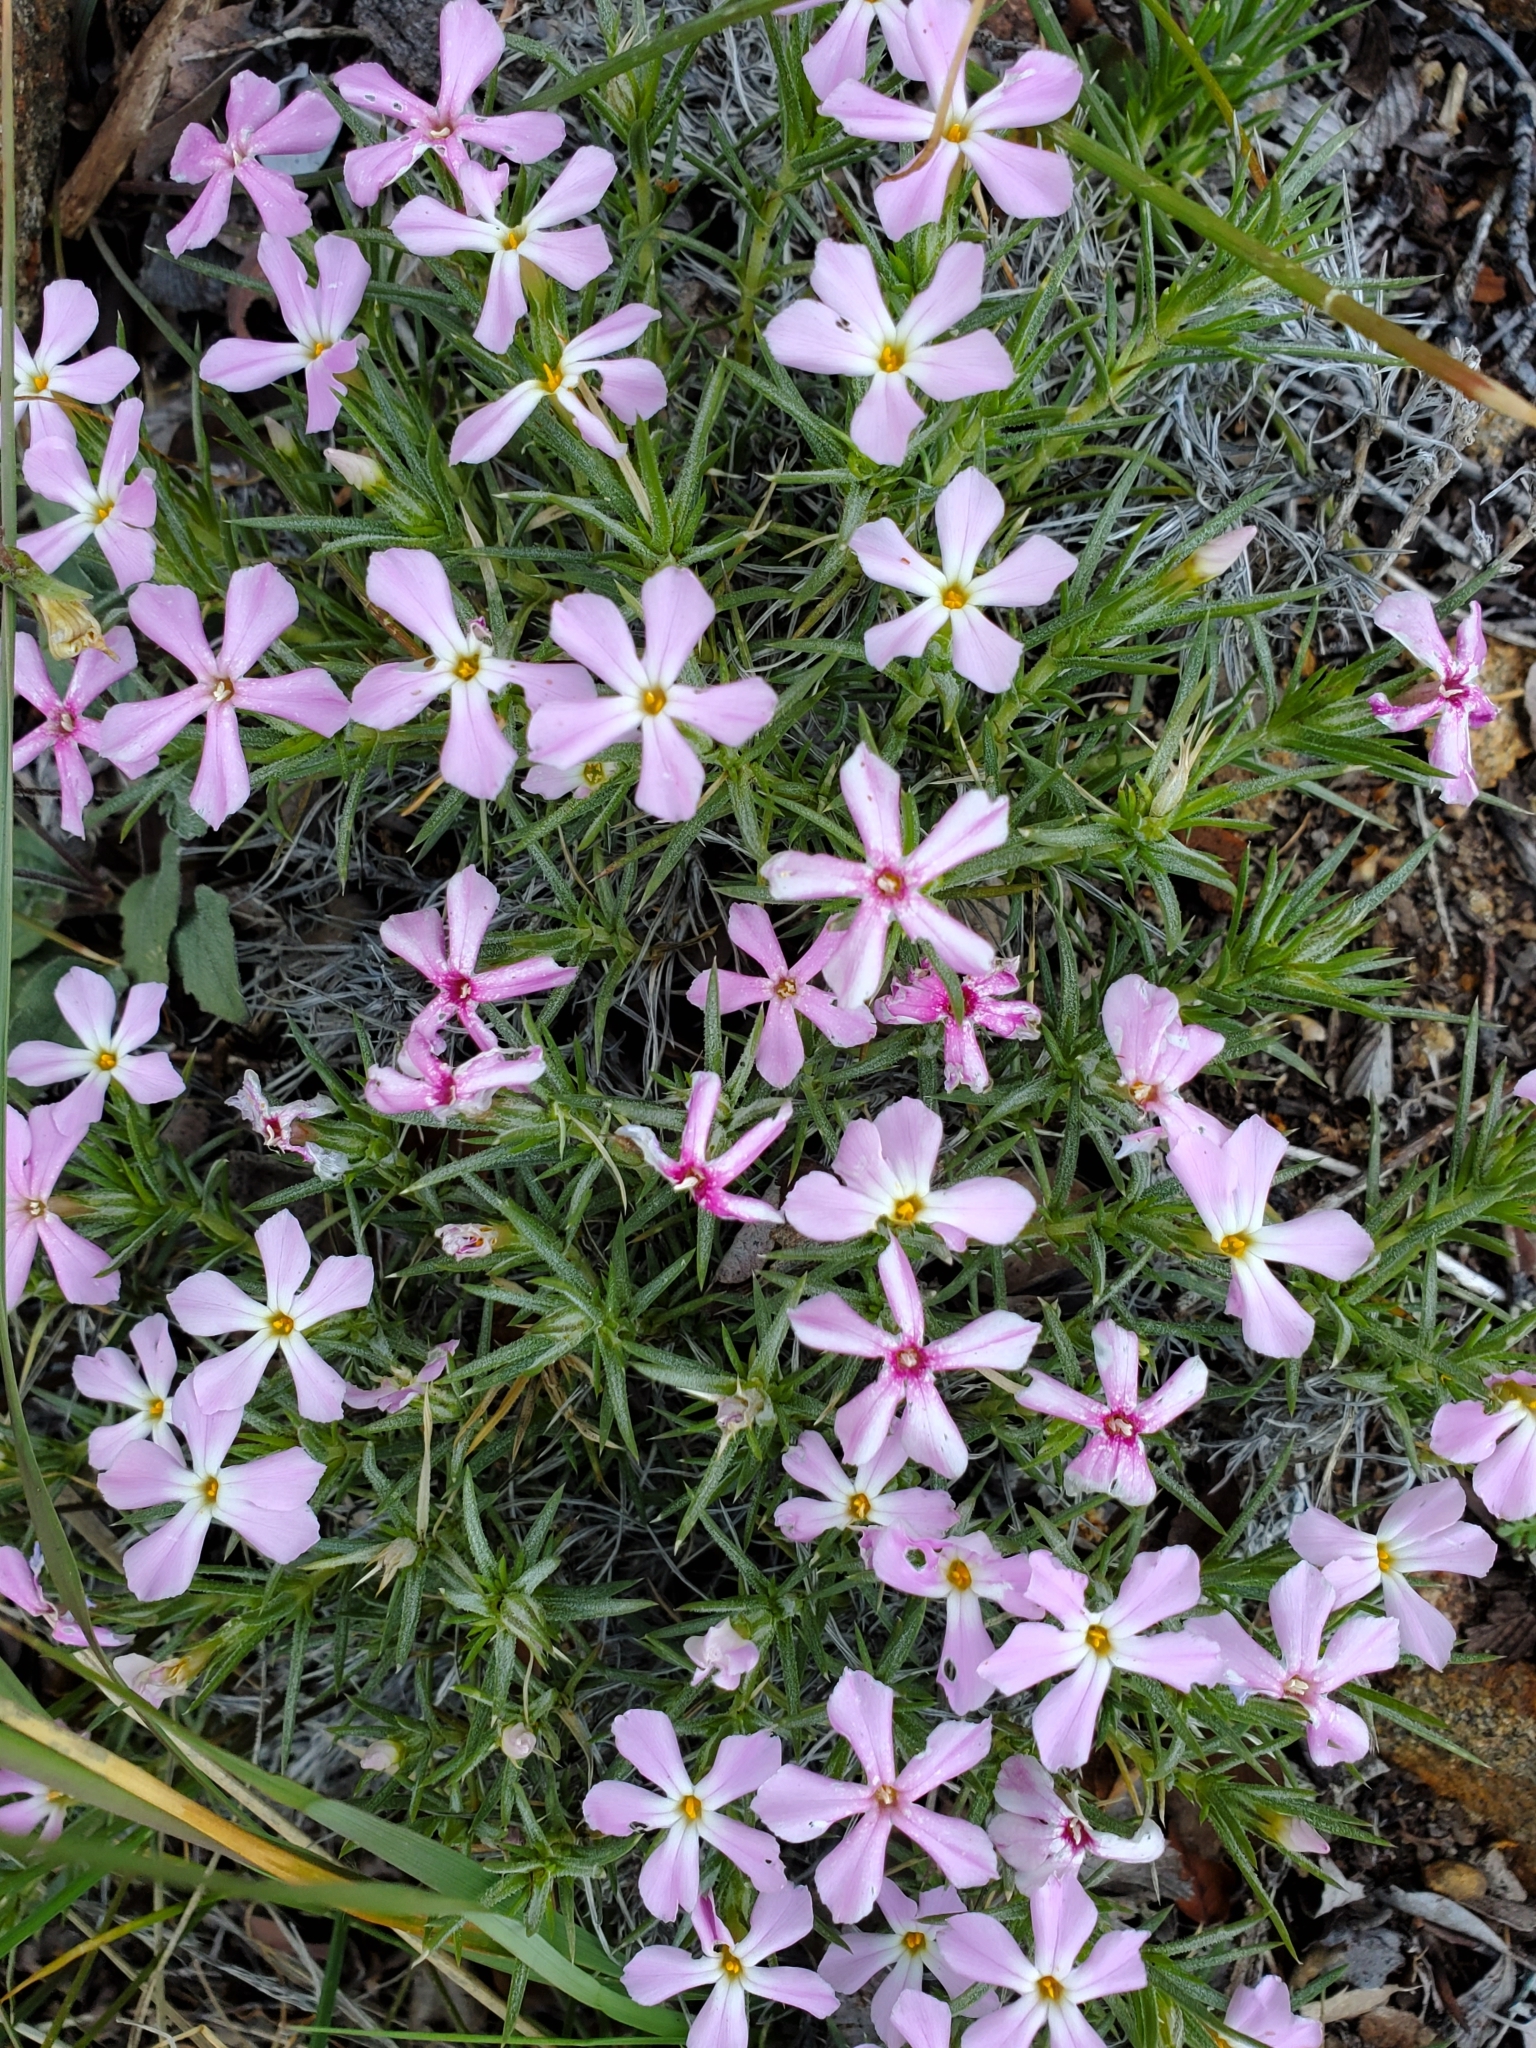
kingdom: Plantae
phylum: Tracheophyta
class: Magnoliopsida
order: Ericales
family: Polemoniaceae
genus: Phlox
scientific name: Phlox austromontana
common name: Desert phlox
